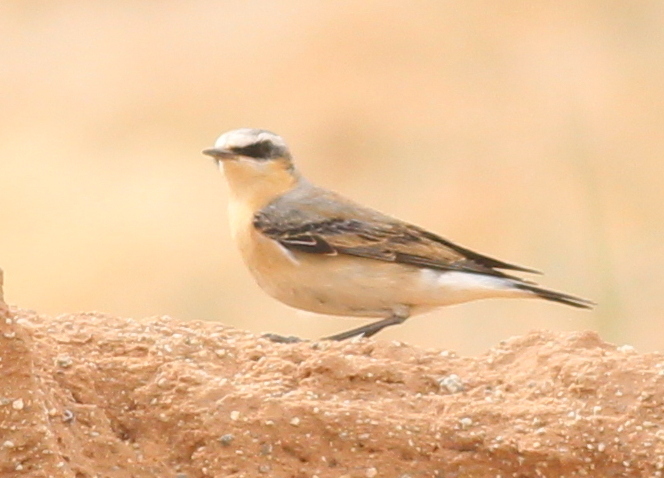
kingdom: Animalia
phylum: Chordata
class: Aves
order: Passeriformes
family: Muscicapidae
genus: Oenanthe
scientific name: Oenanthe oenanthe
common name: Northern wheatear
